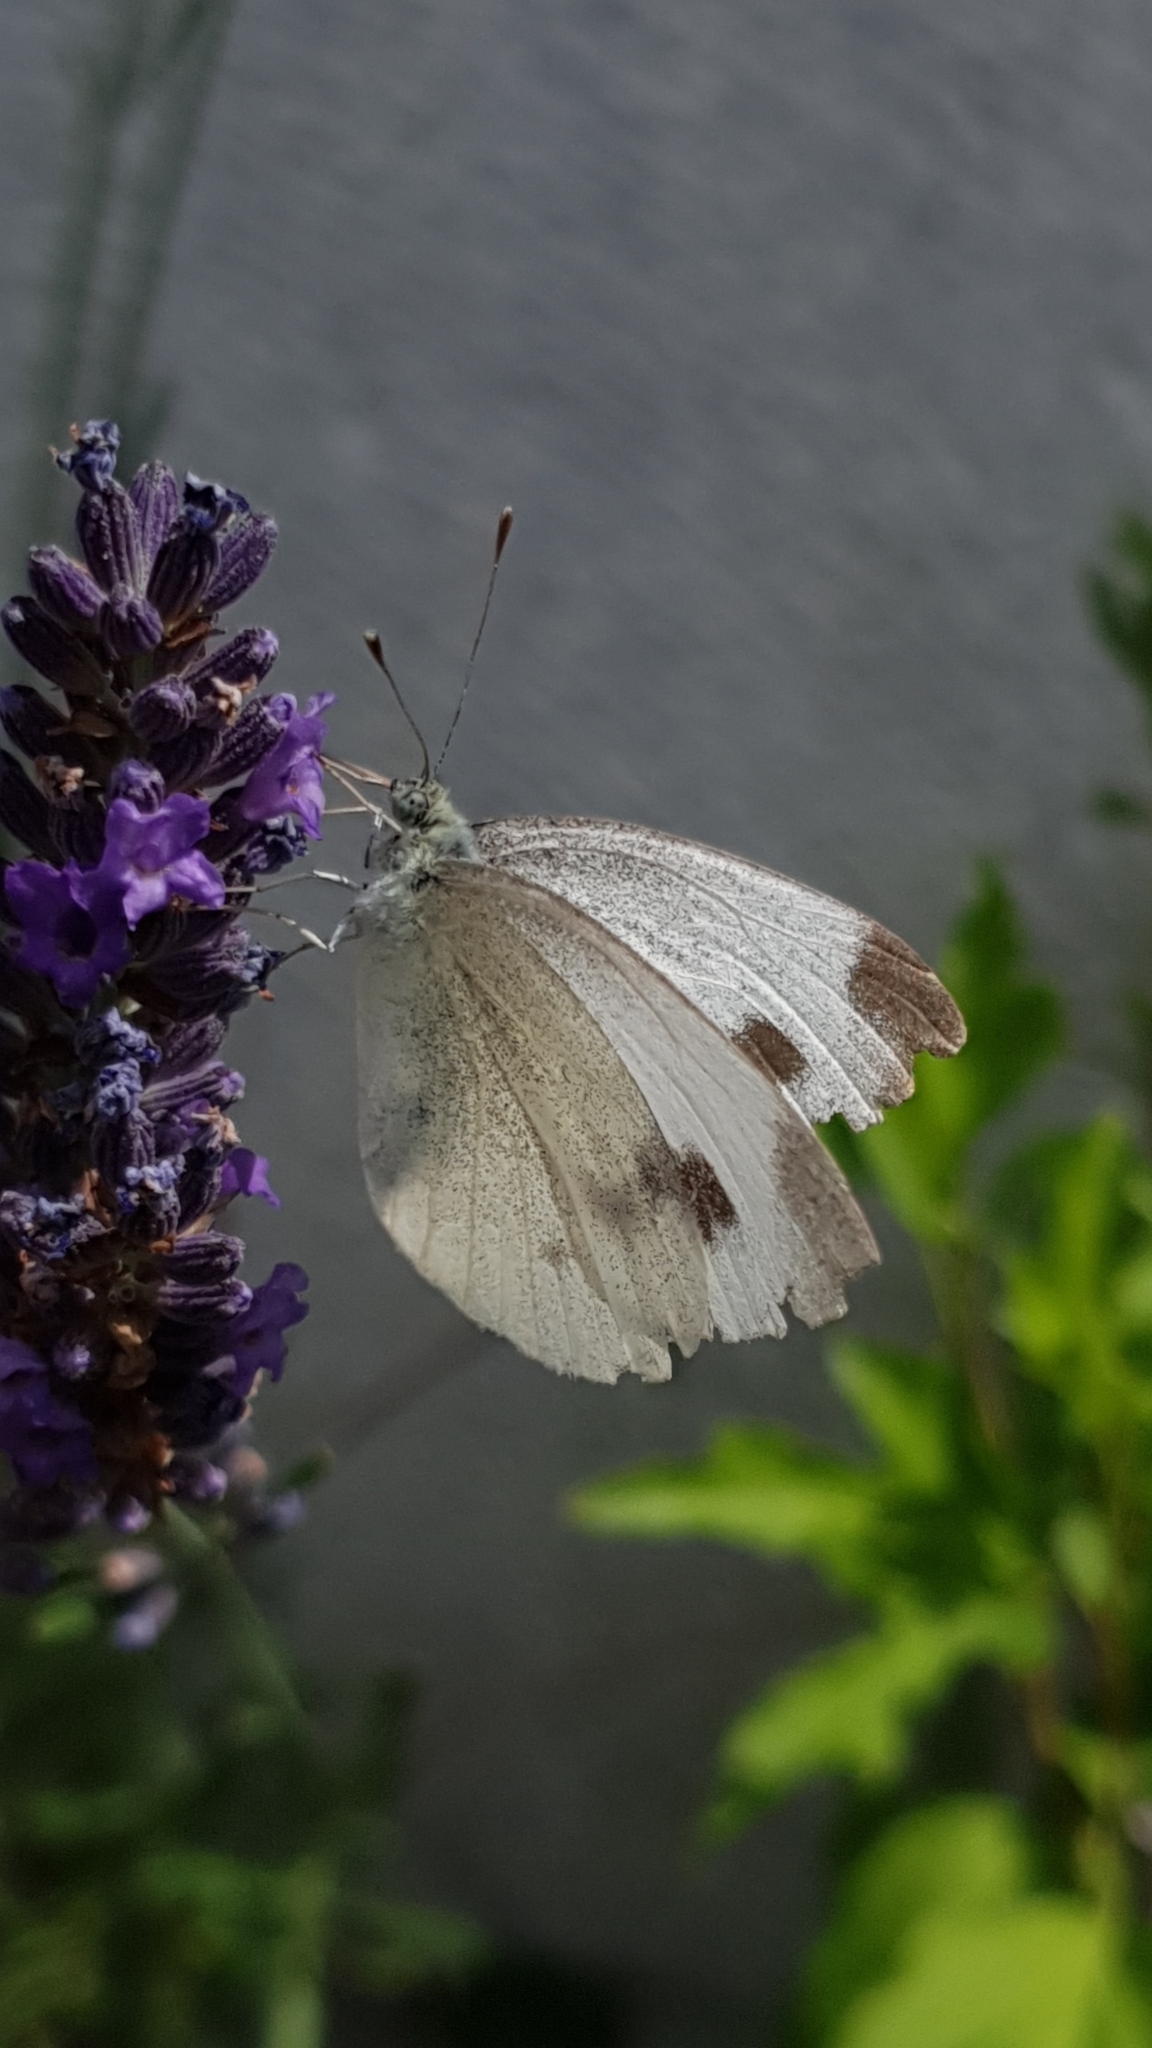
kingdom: Animalia
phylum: Arthropoda
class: Insecta
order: Lepidoptera
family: Pieridae
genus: Pieris
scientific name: Pieris mannii
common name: Southern small white
